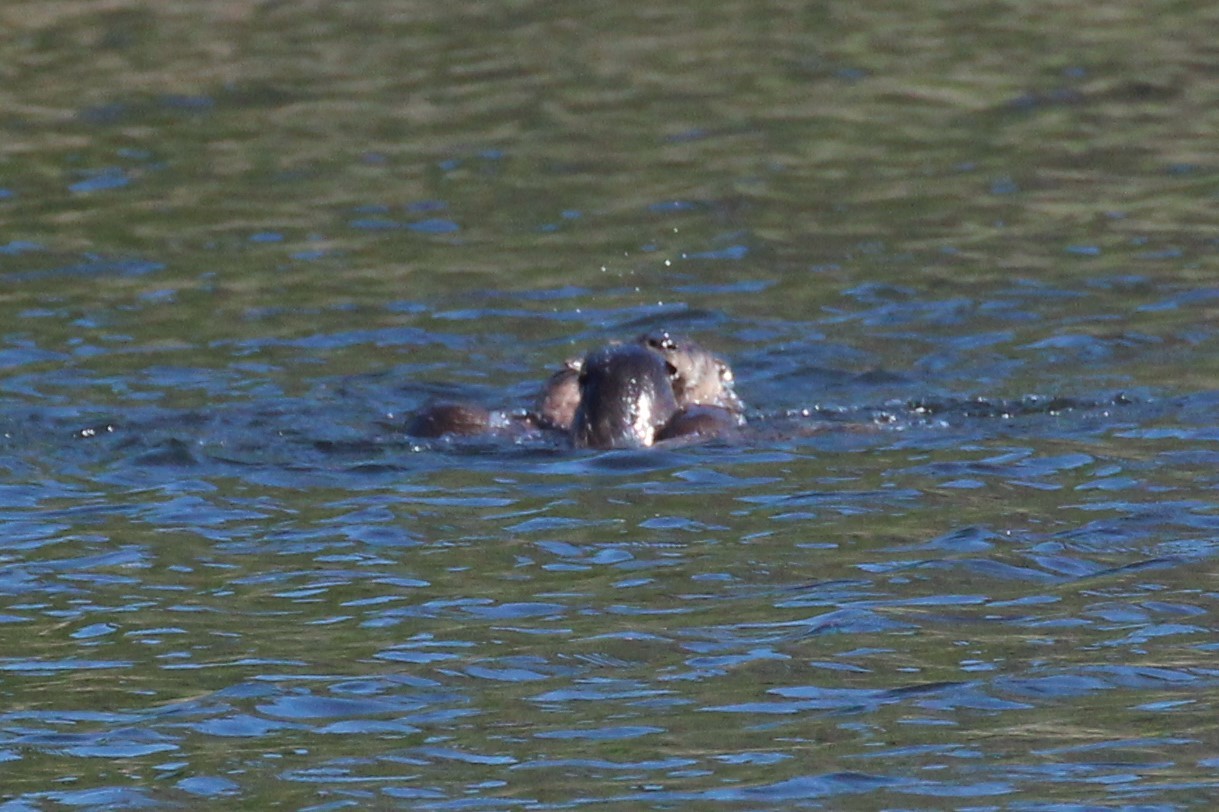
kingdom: Animalia
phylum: Chordata
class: Mammalia
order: Carnivora
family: Mustelidae
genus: Lontra
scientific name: Lontra canadensis
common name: North american river otter
